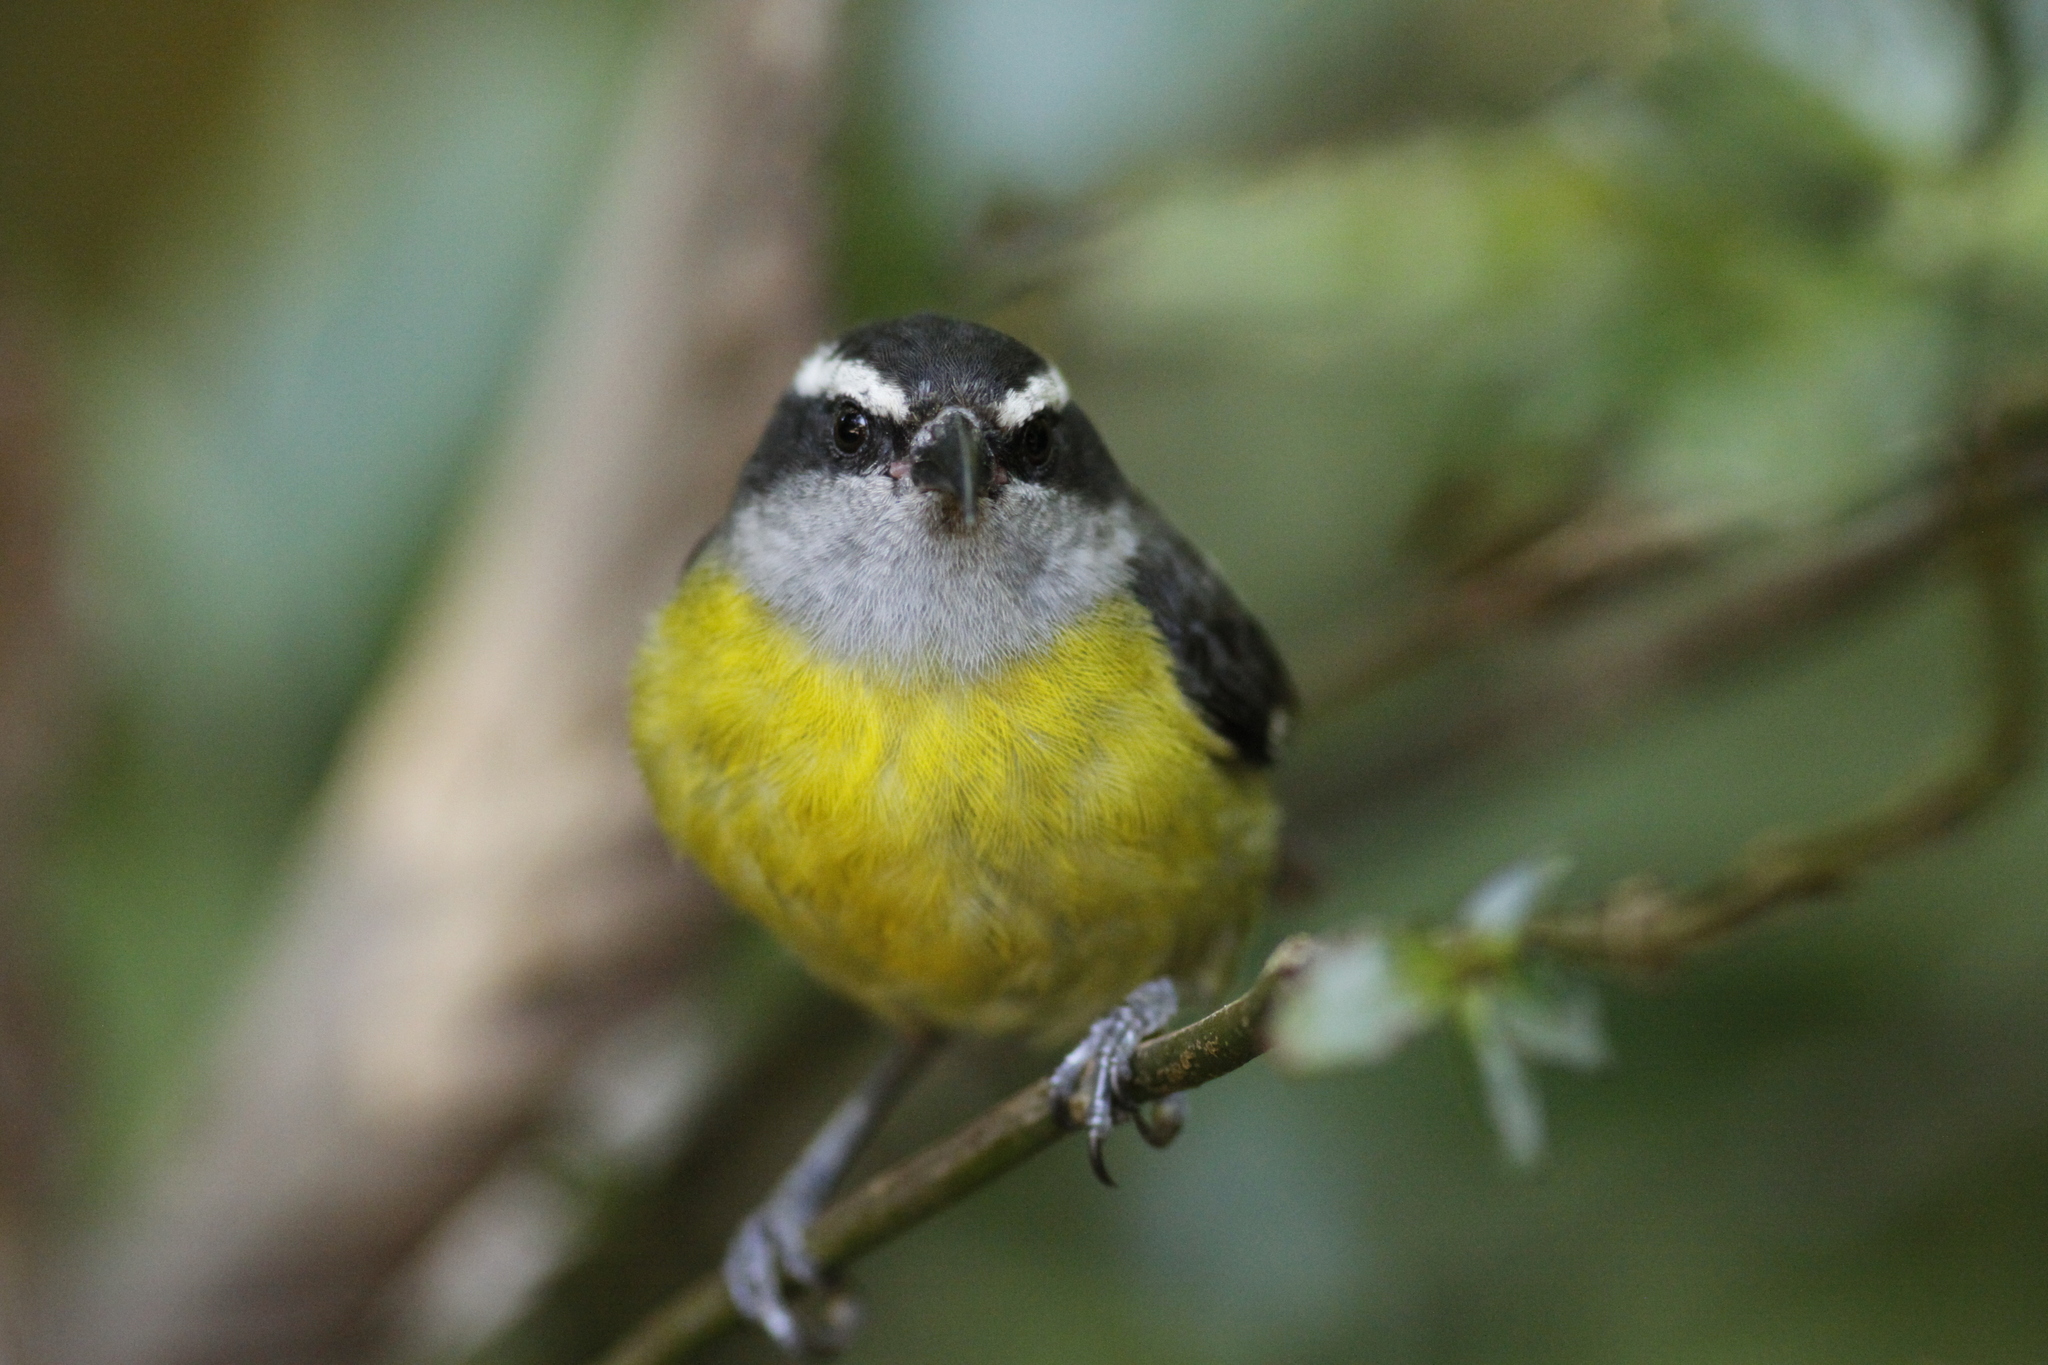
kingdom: Animalia
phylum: Chordata
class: Aves
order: Passeriformes
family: Thraupidae
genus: Coereba
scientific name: Coereba flaveola
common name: Bananaquit
